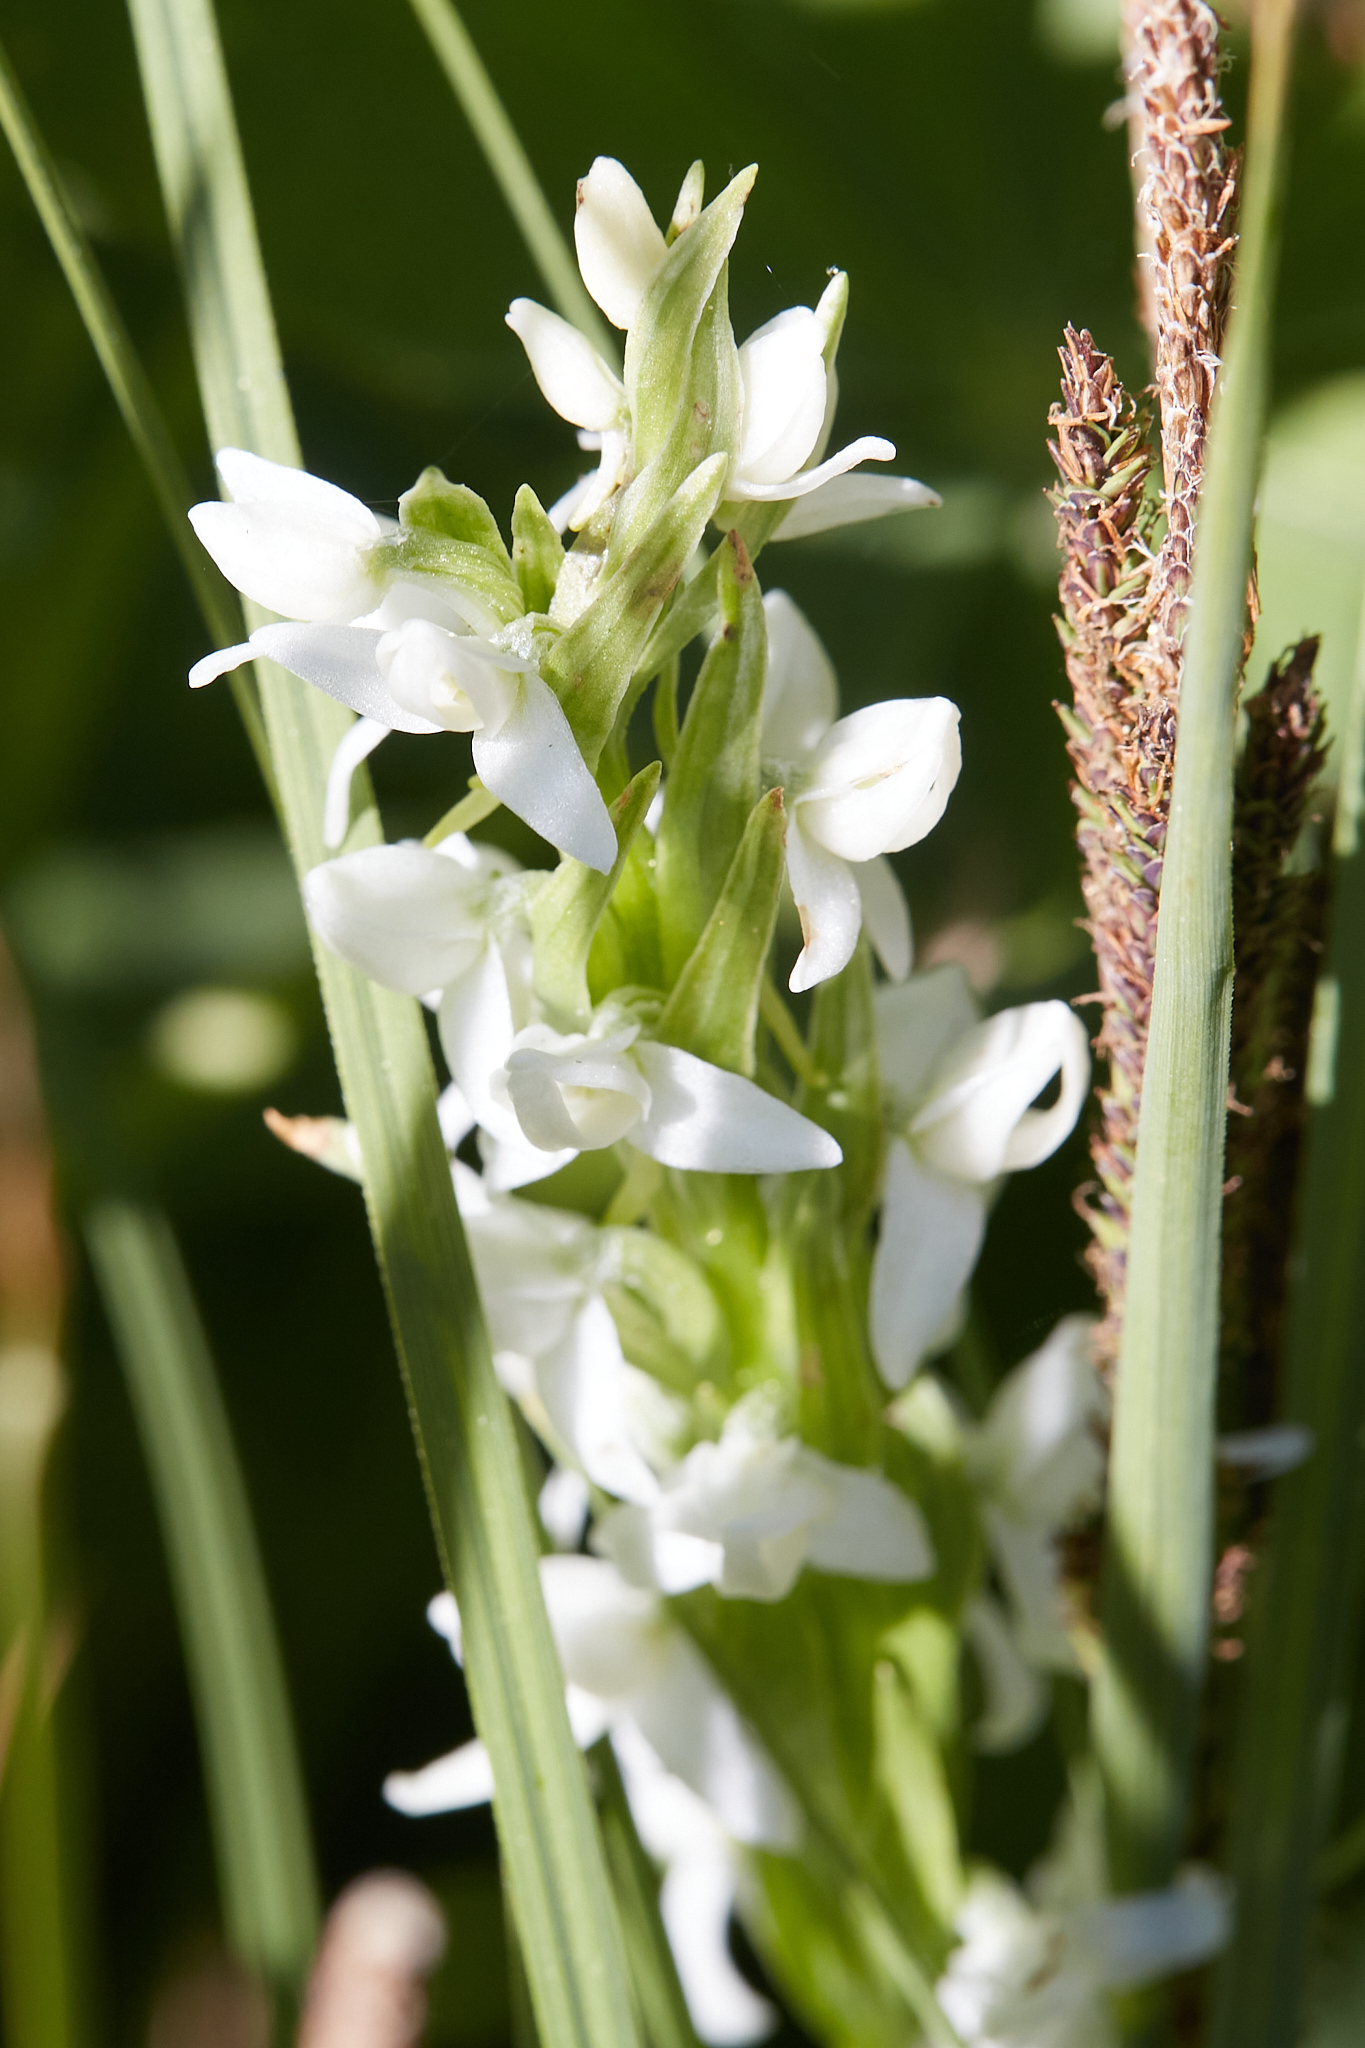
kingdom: Plantae
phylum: Tracheophyta
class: Liliopsida
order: Asparagales
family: Orchidaceae
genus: Platanthera
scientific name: Platanthera dilatata
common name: Bog candles
